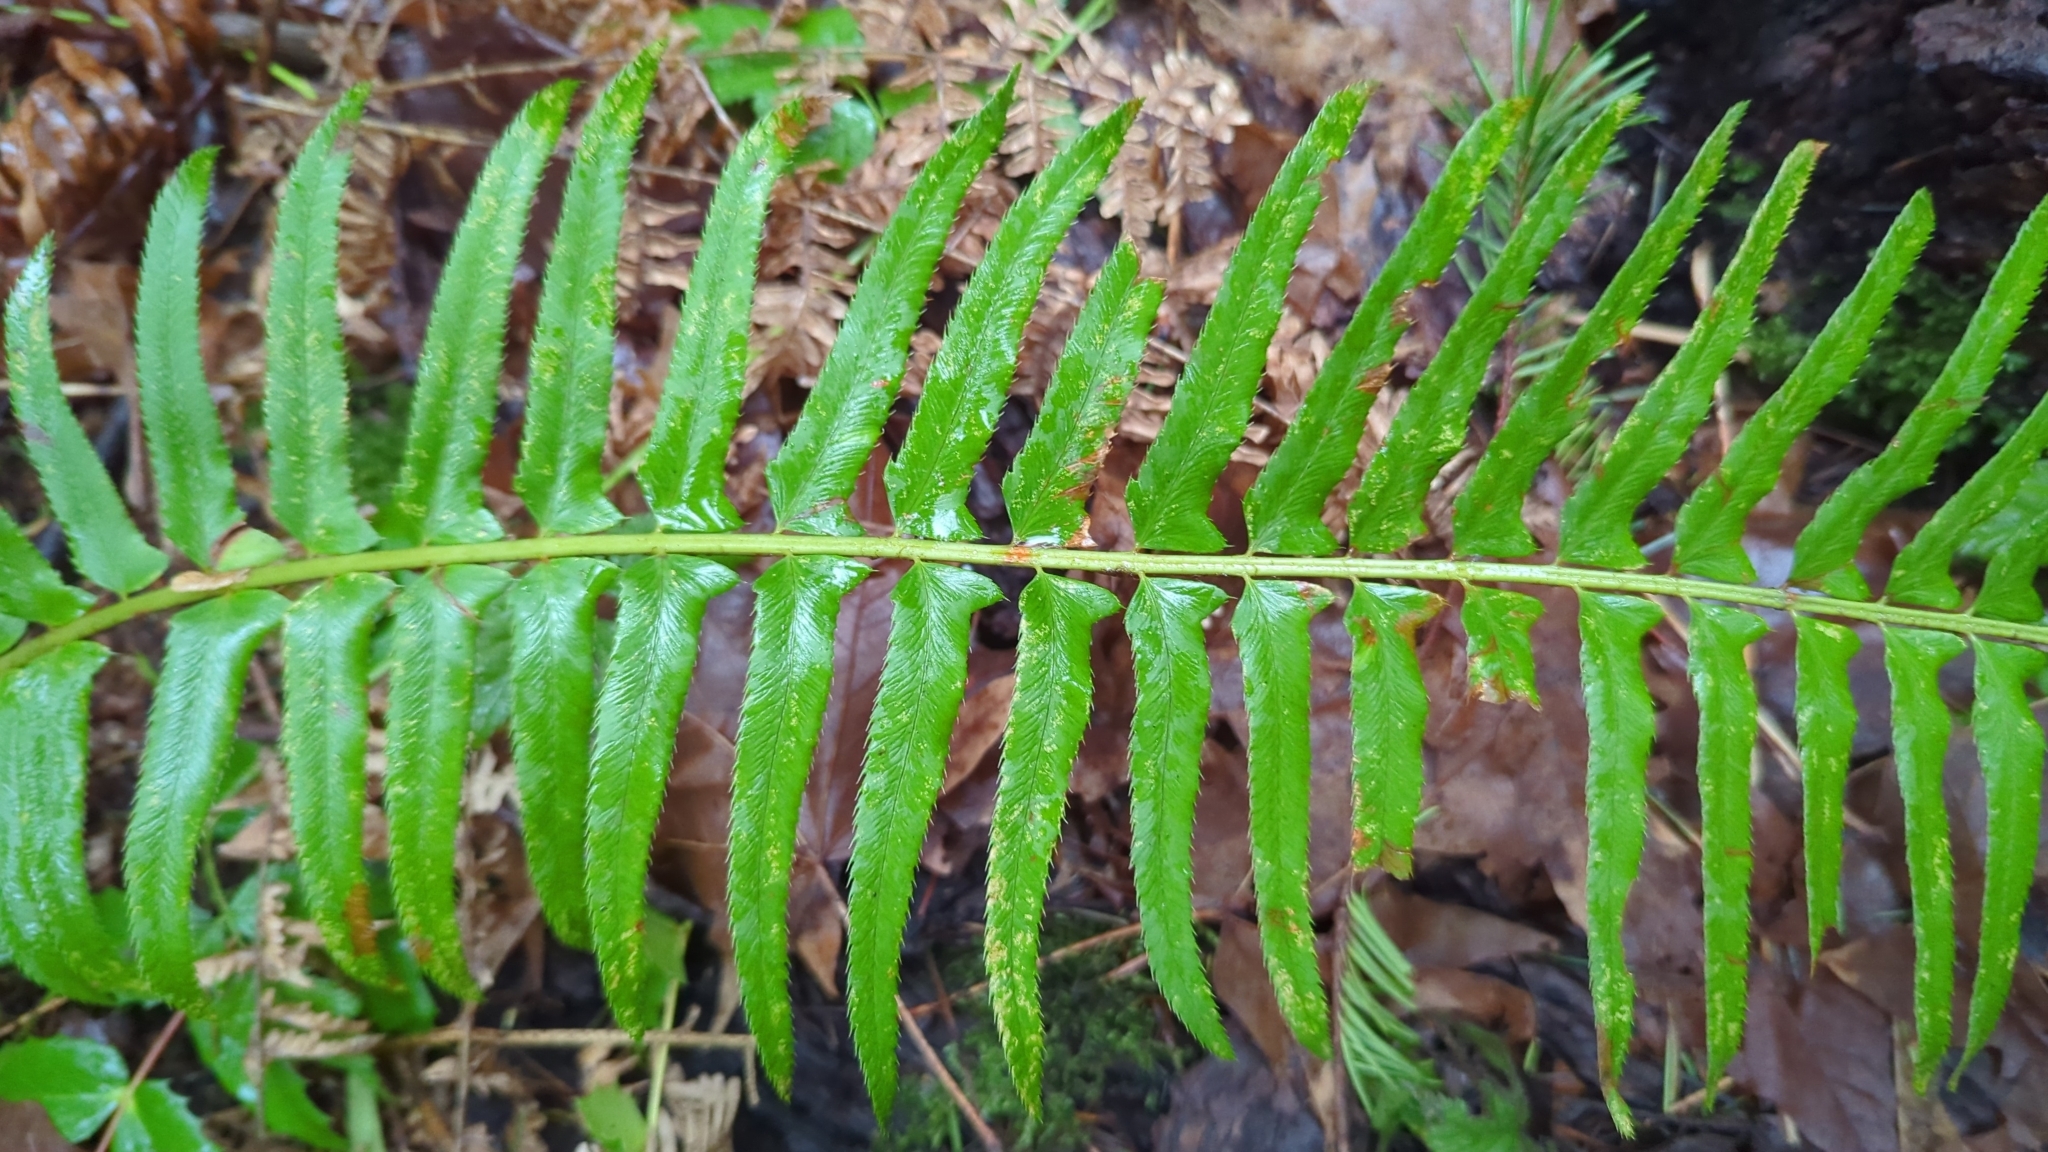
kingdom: Plantae
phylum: Tracheophyta
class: Polypodiopsida
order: Polypodiales
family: Dryopteridaceae
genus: Polystichum
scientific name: Polystichum munitum
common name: Western sword-fern
